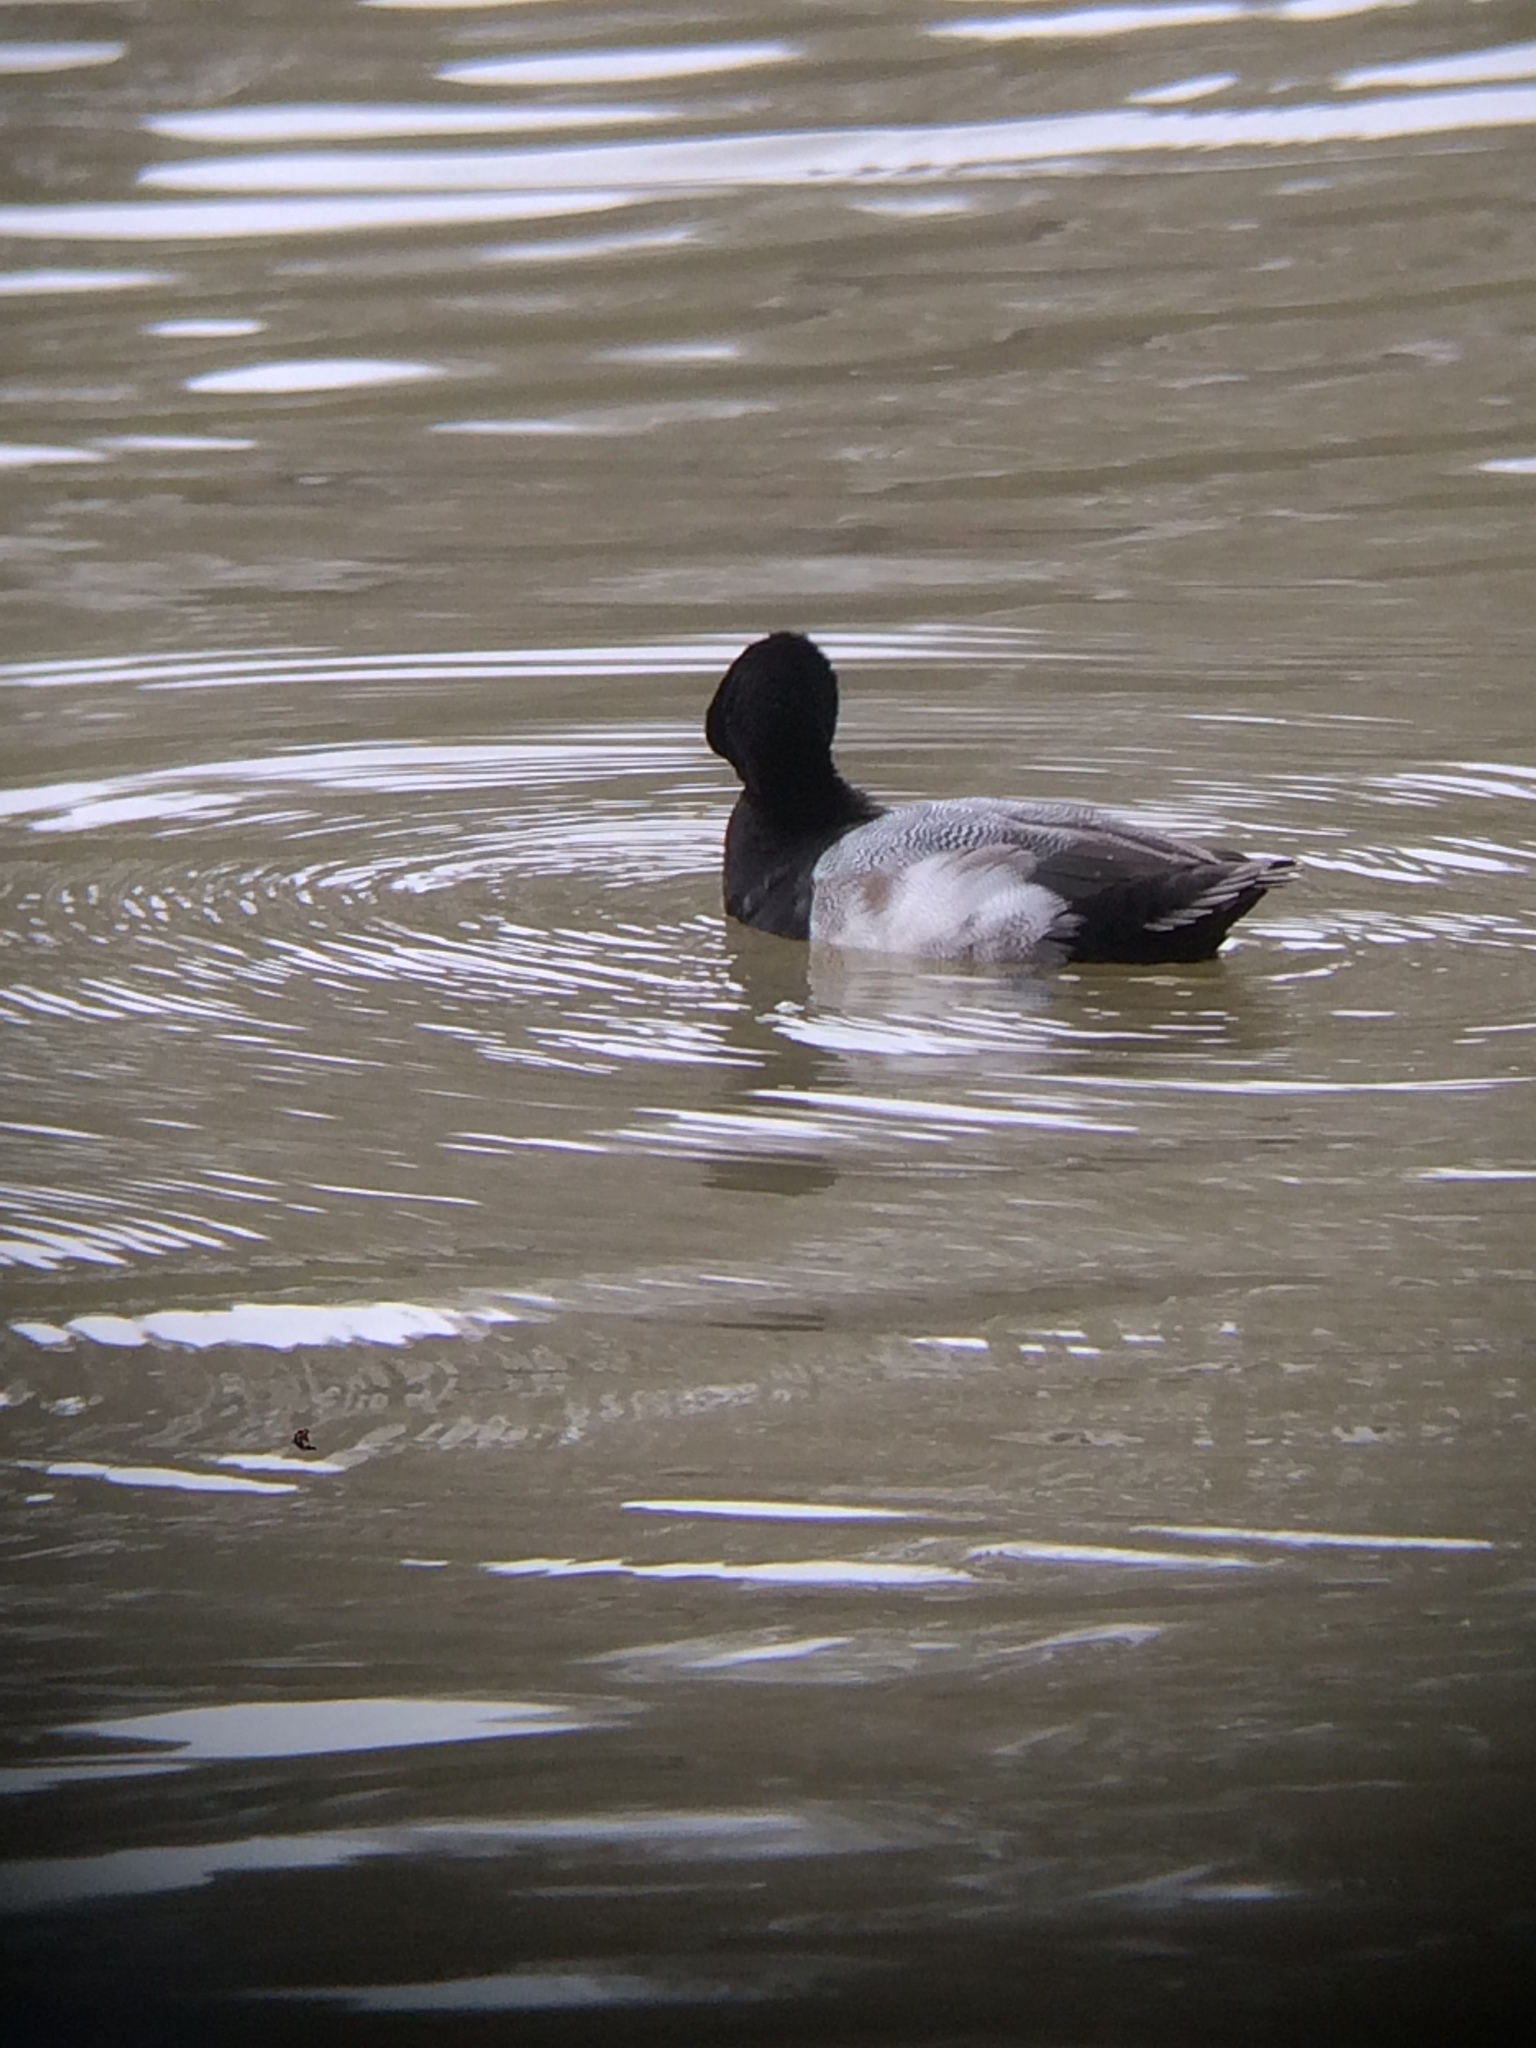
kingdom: Animalia
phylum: Chordata
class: Aves
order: Anseriformes
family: Anatidae
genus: Aythya
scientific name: Aythya affinis
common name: Lesser scaup
